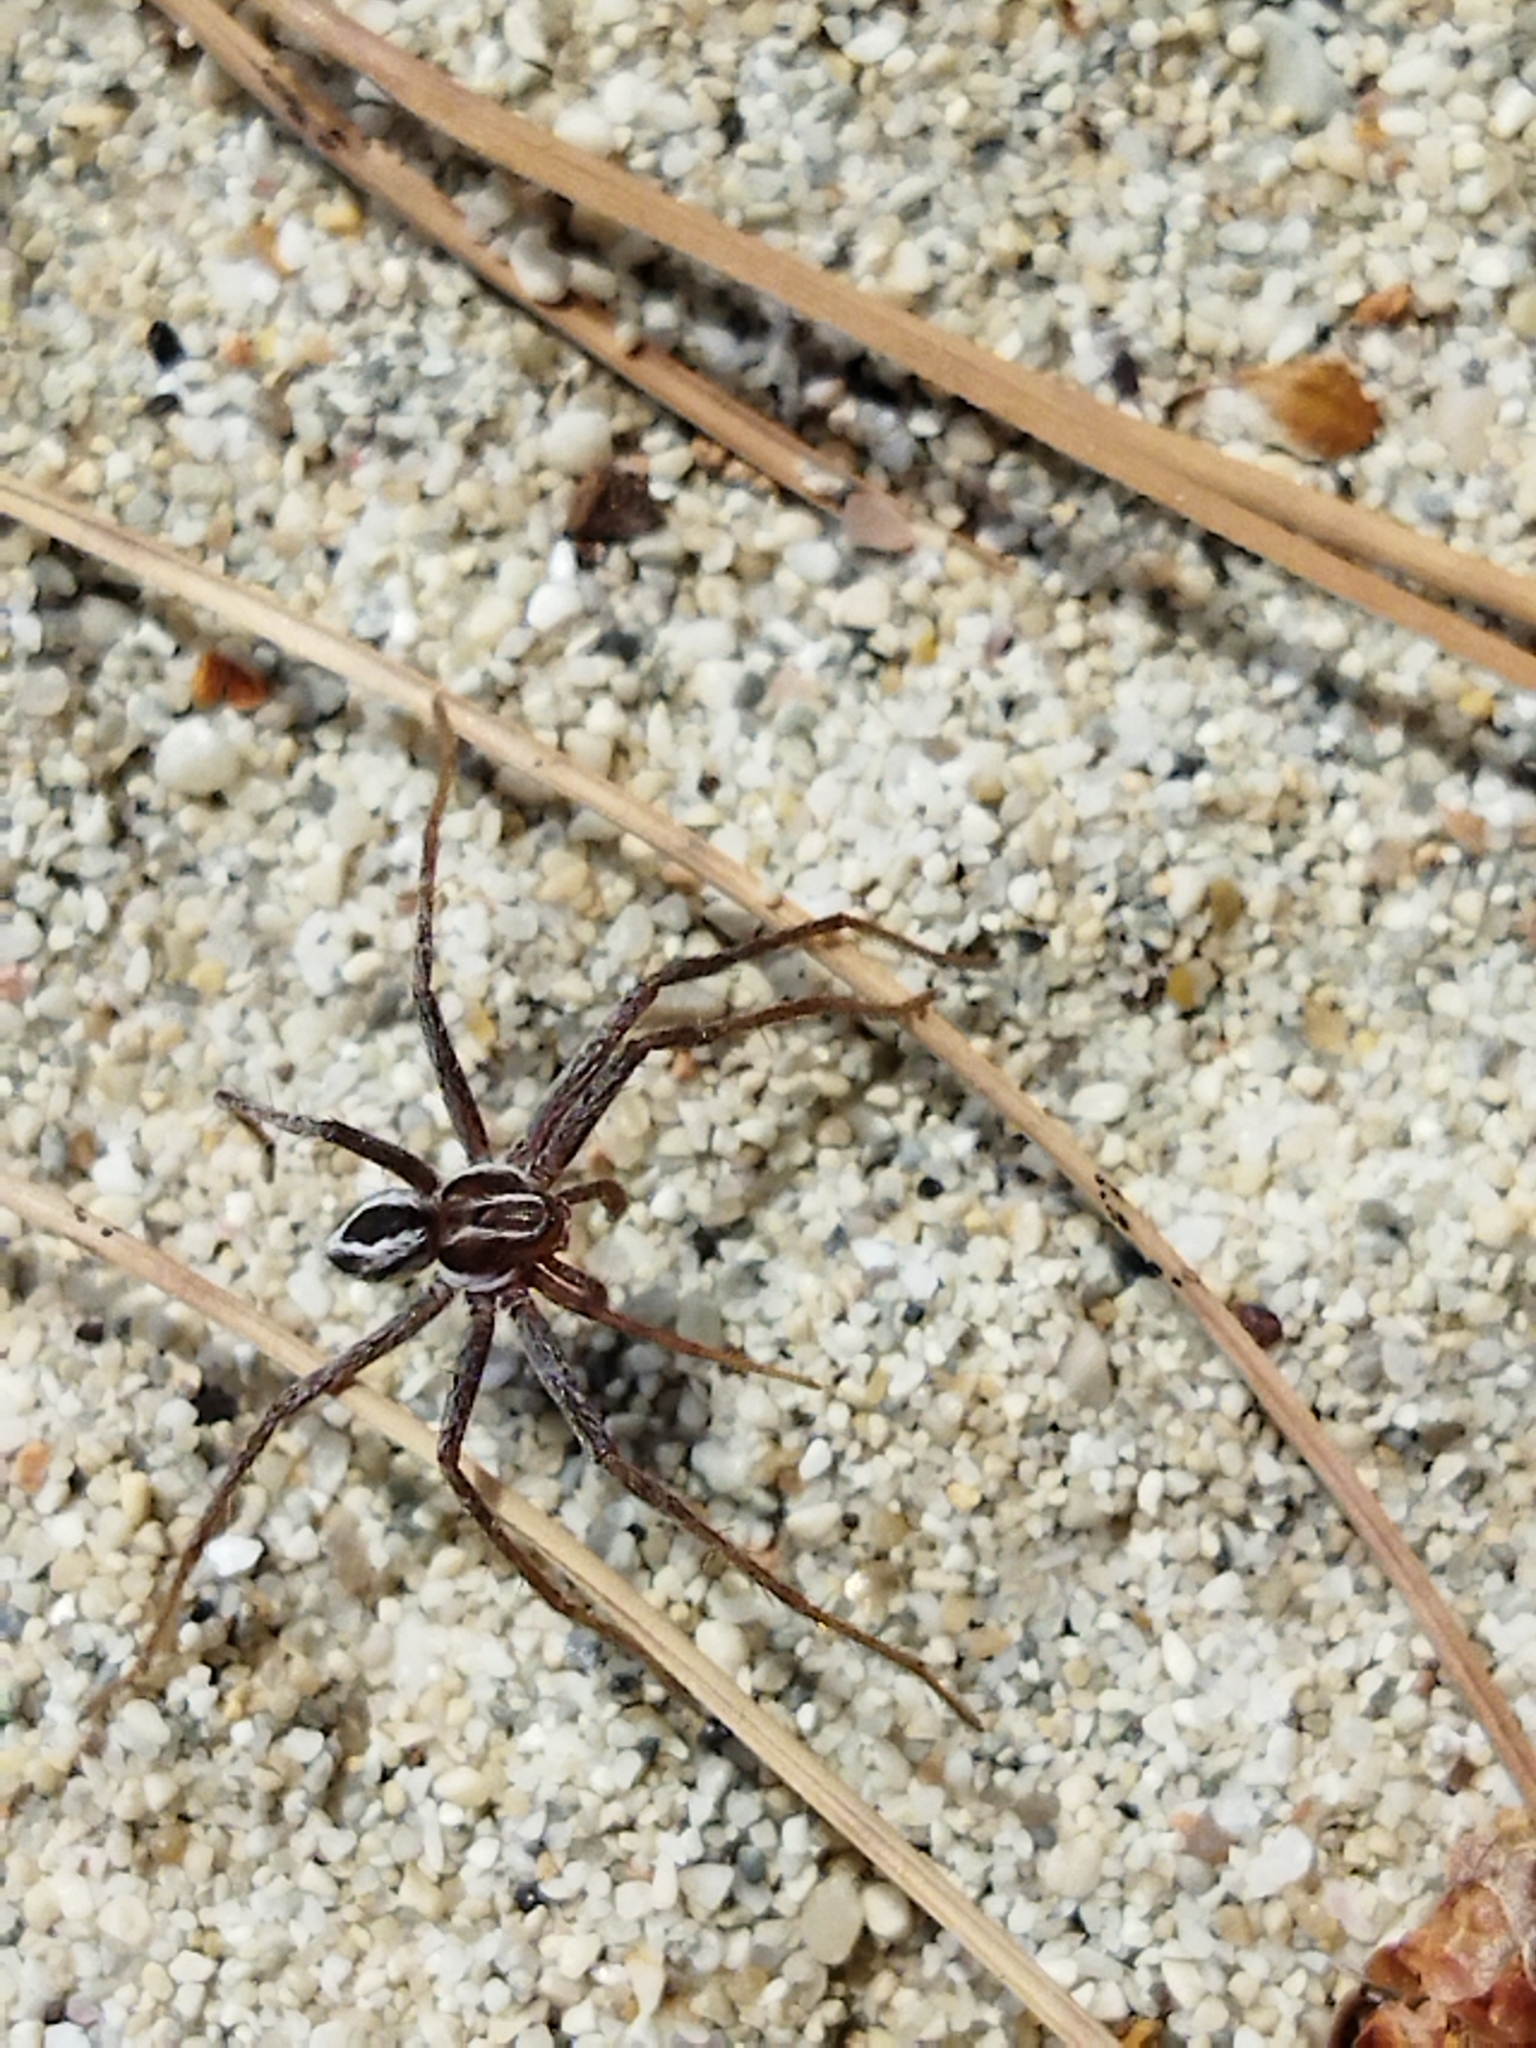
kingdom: Animalia
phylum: Arthropoda
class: Arachnida
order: Araneae
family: Philodromidae
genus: Thanatus
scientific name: Thanatus
